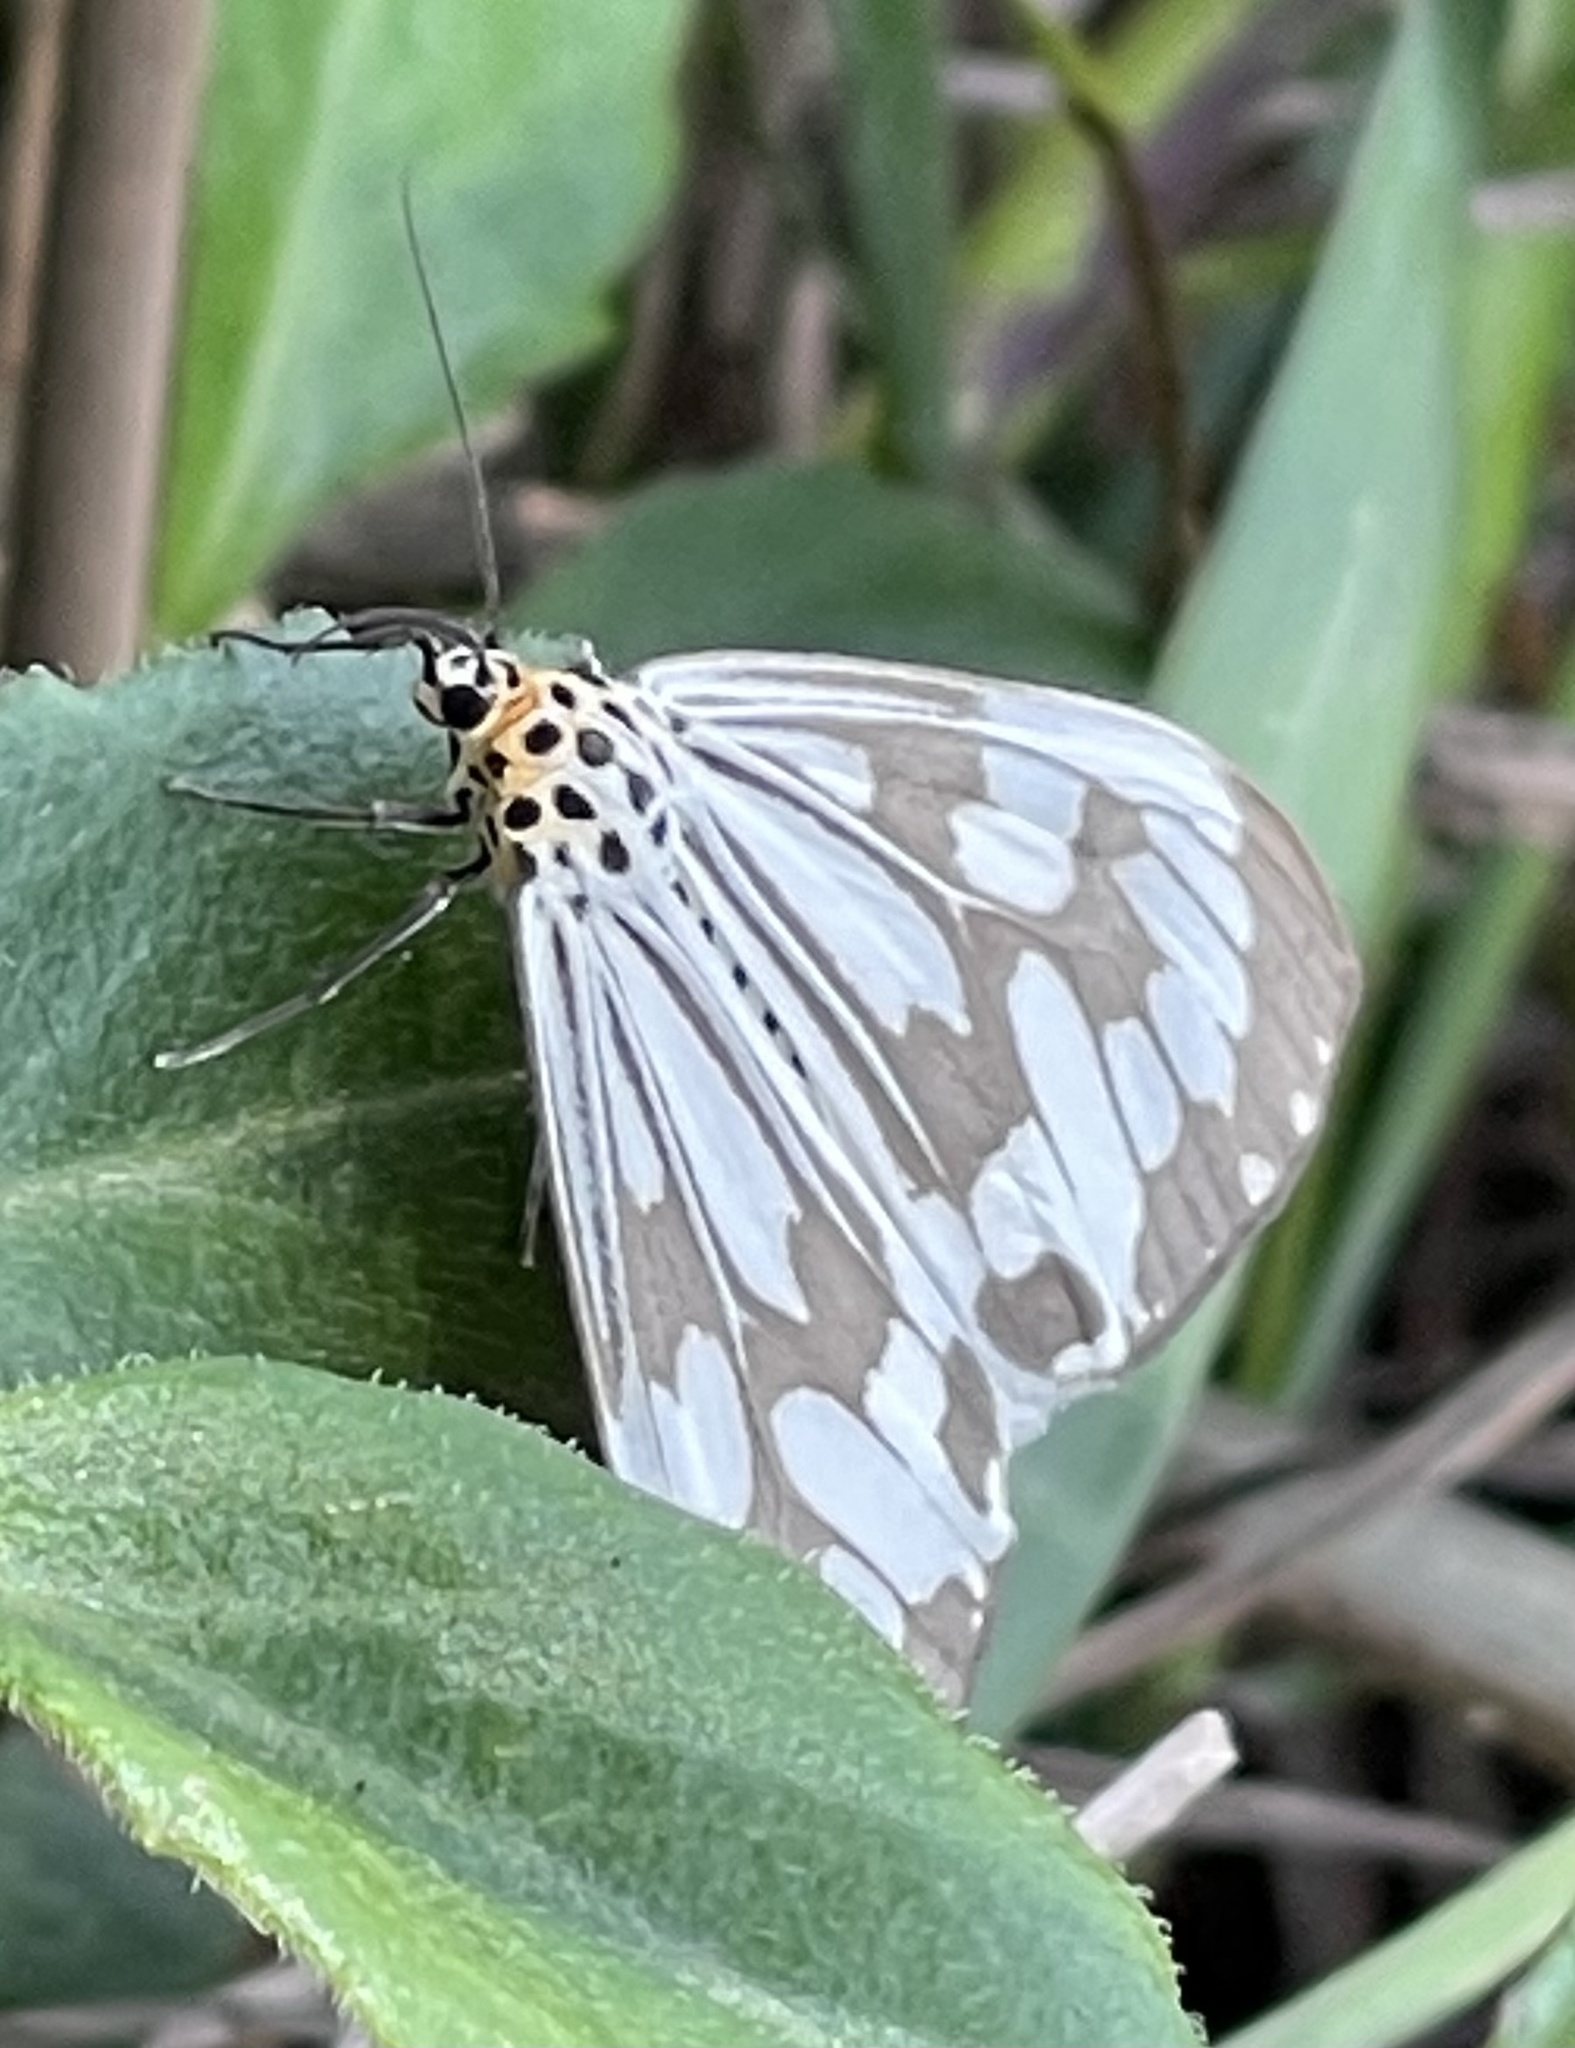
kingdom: Animalia
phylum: Arthropoda
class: Insecta
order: Lepidoptera
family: Erebidae
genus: Nyctemera
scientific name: Nyctemera adversata
